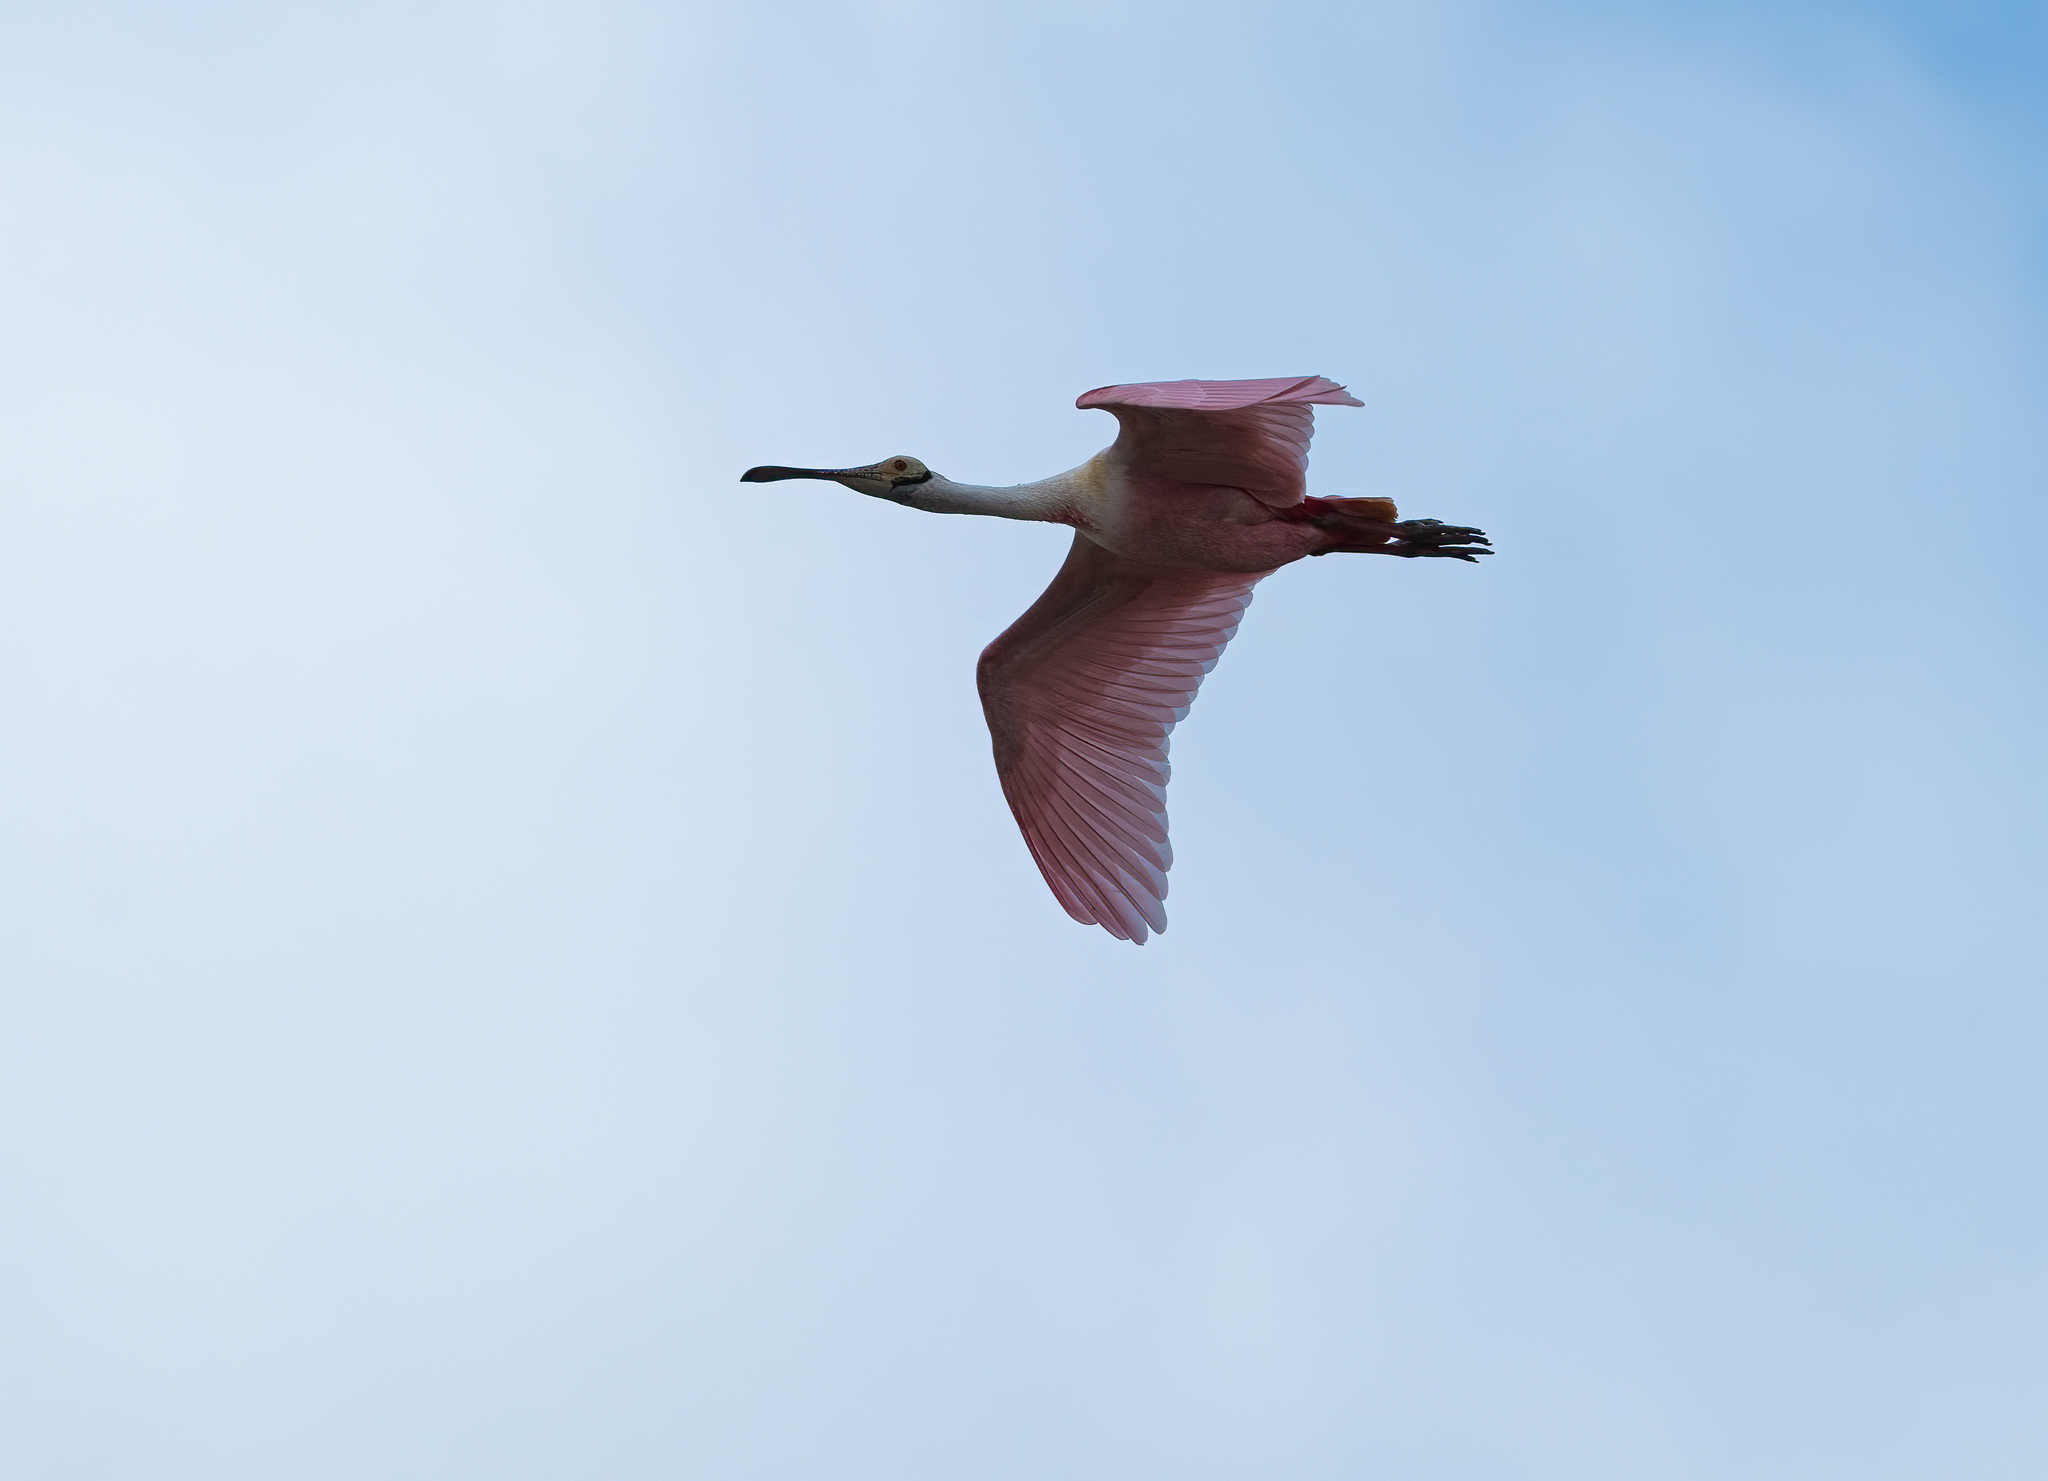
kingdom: Animalia
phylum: Chordata
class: Aves
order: Pelecaniformes
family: Threskiornithidae
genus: Platalea
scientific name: Platalea ajaja
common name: Roseate spoonbill
